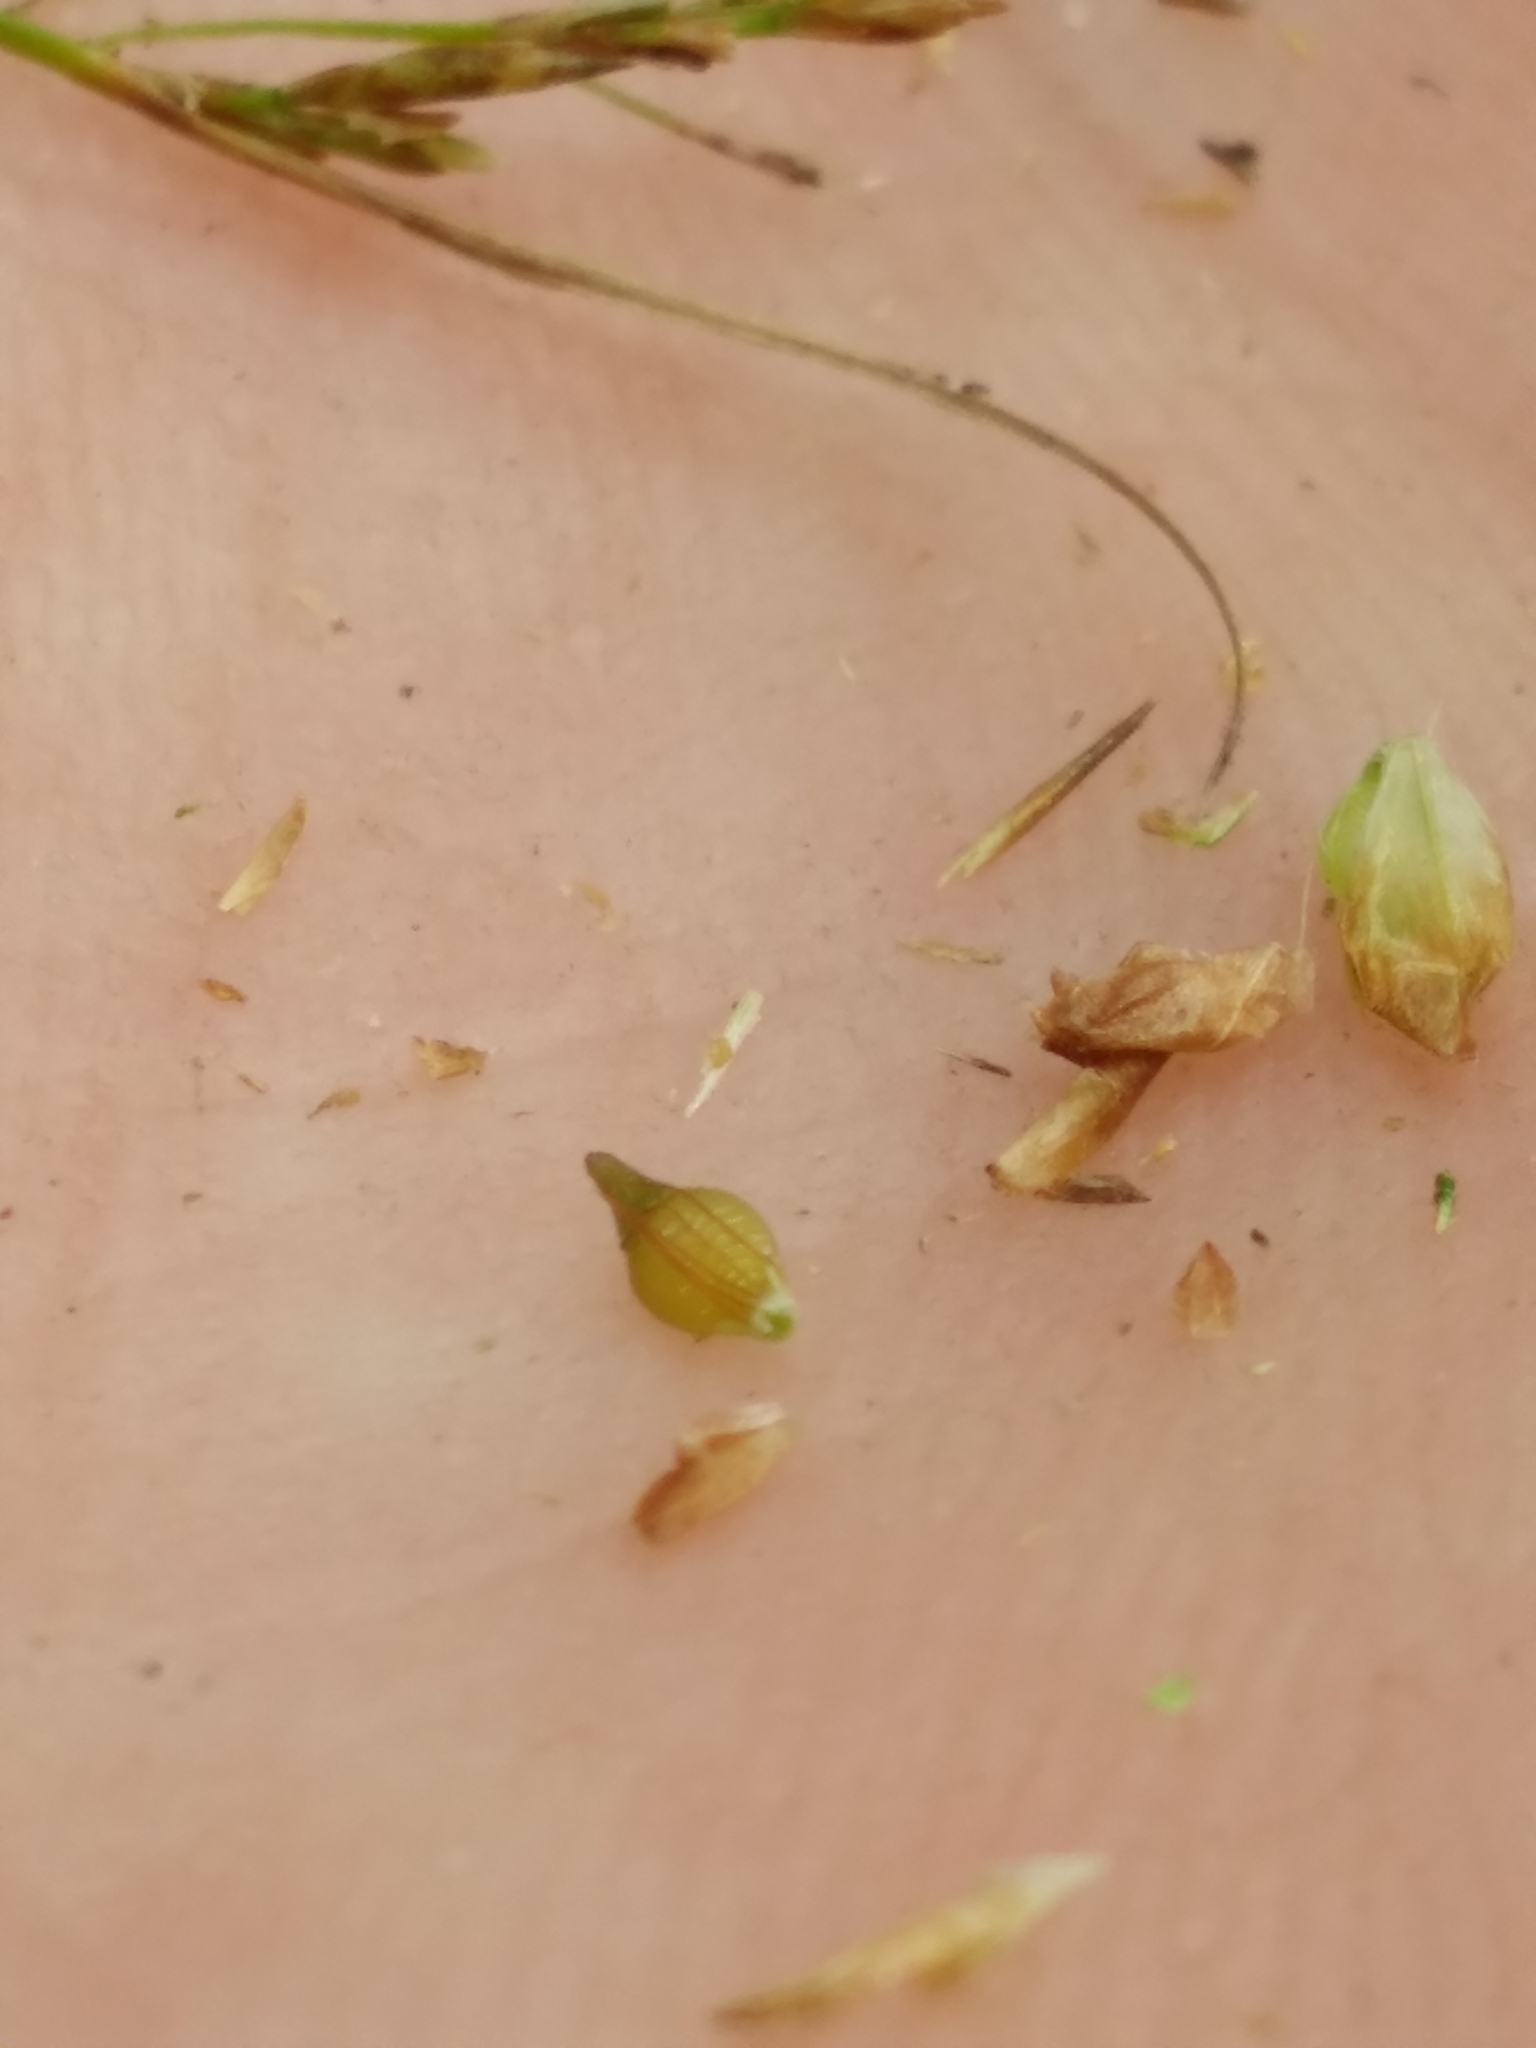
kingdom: Plantae
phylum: Tracheophyta
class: Liliopsida
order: Poales
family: Cyperaceae
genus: Rhynchospora
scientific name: Rhynchospora stenophylla
